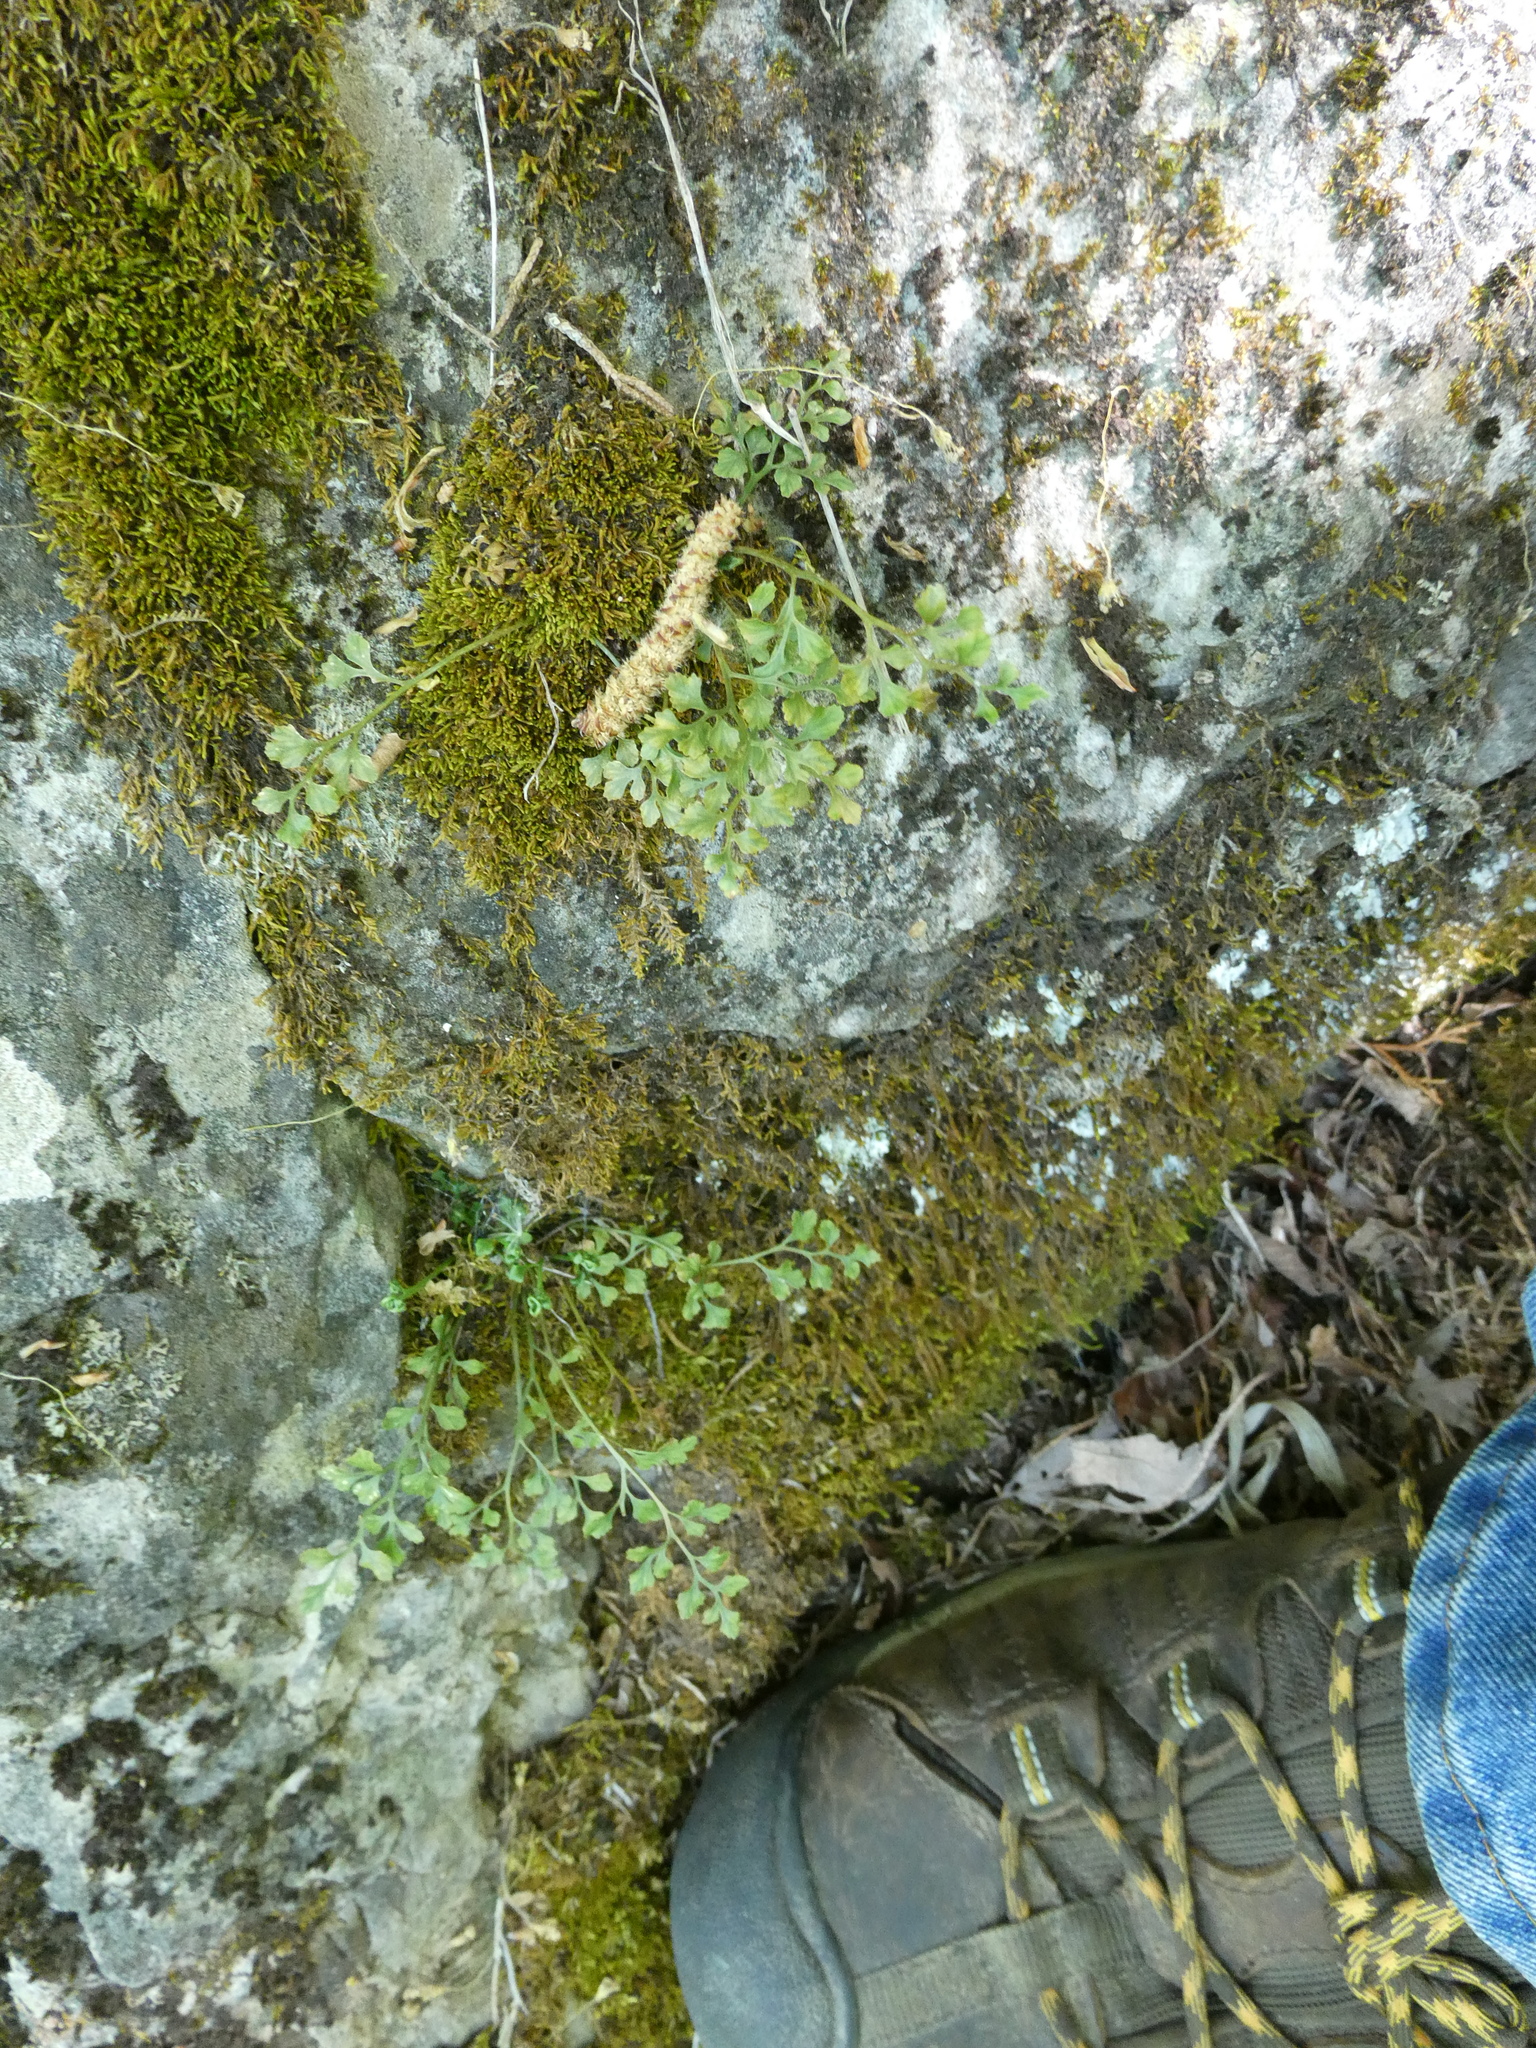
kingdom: Plantae
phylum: Tracheophyta
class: Polypodiopsida
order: Polypodiales
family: Aspleniaceae
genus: Asplenium
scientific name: Asplenium ruta-muraria
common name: Wall-rue
